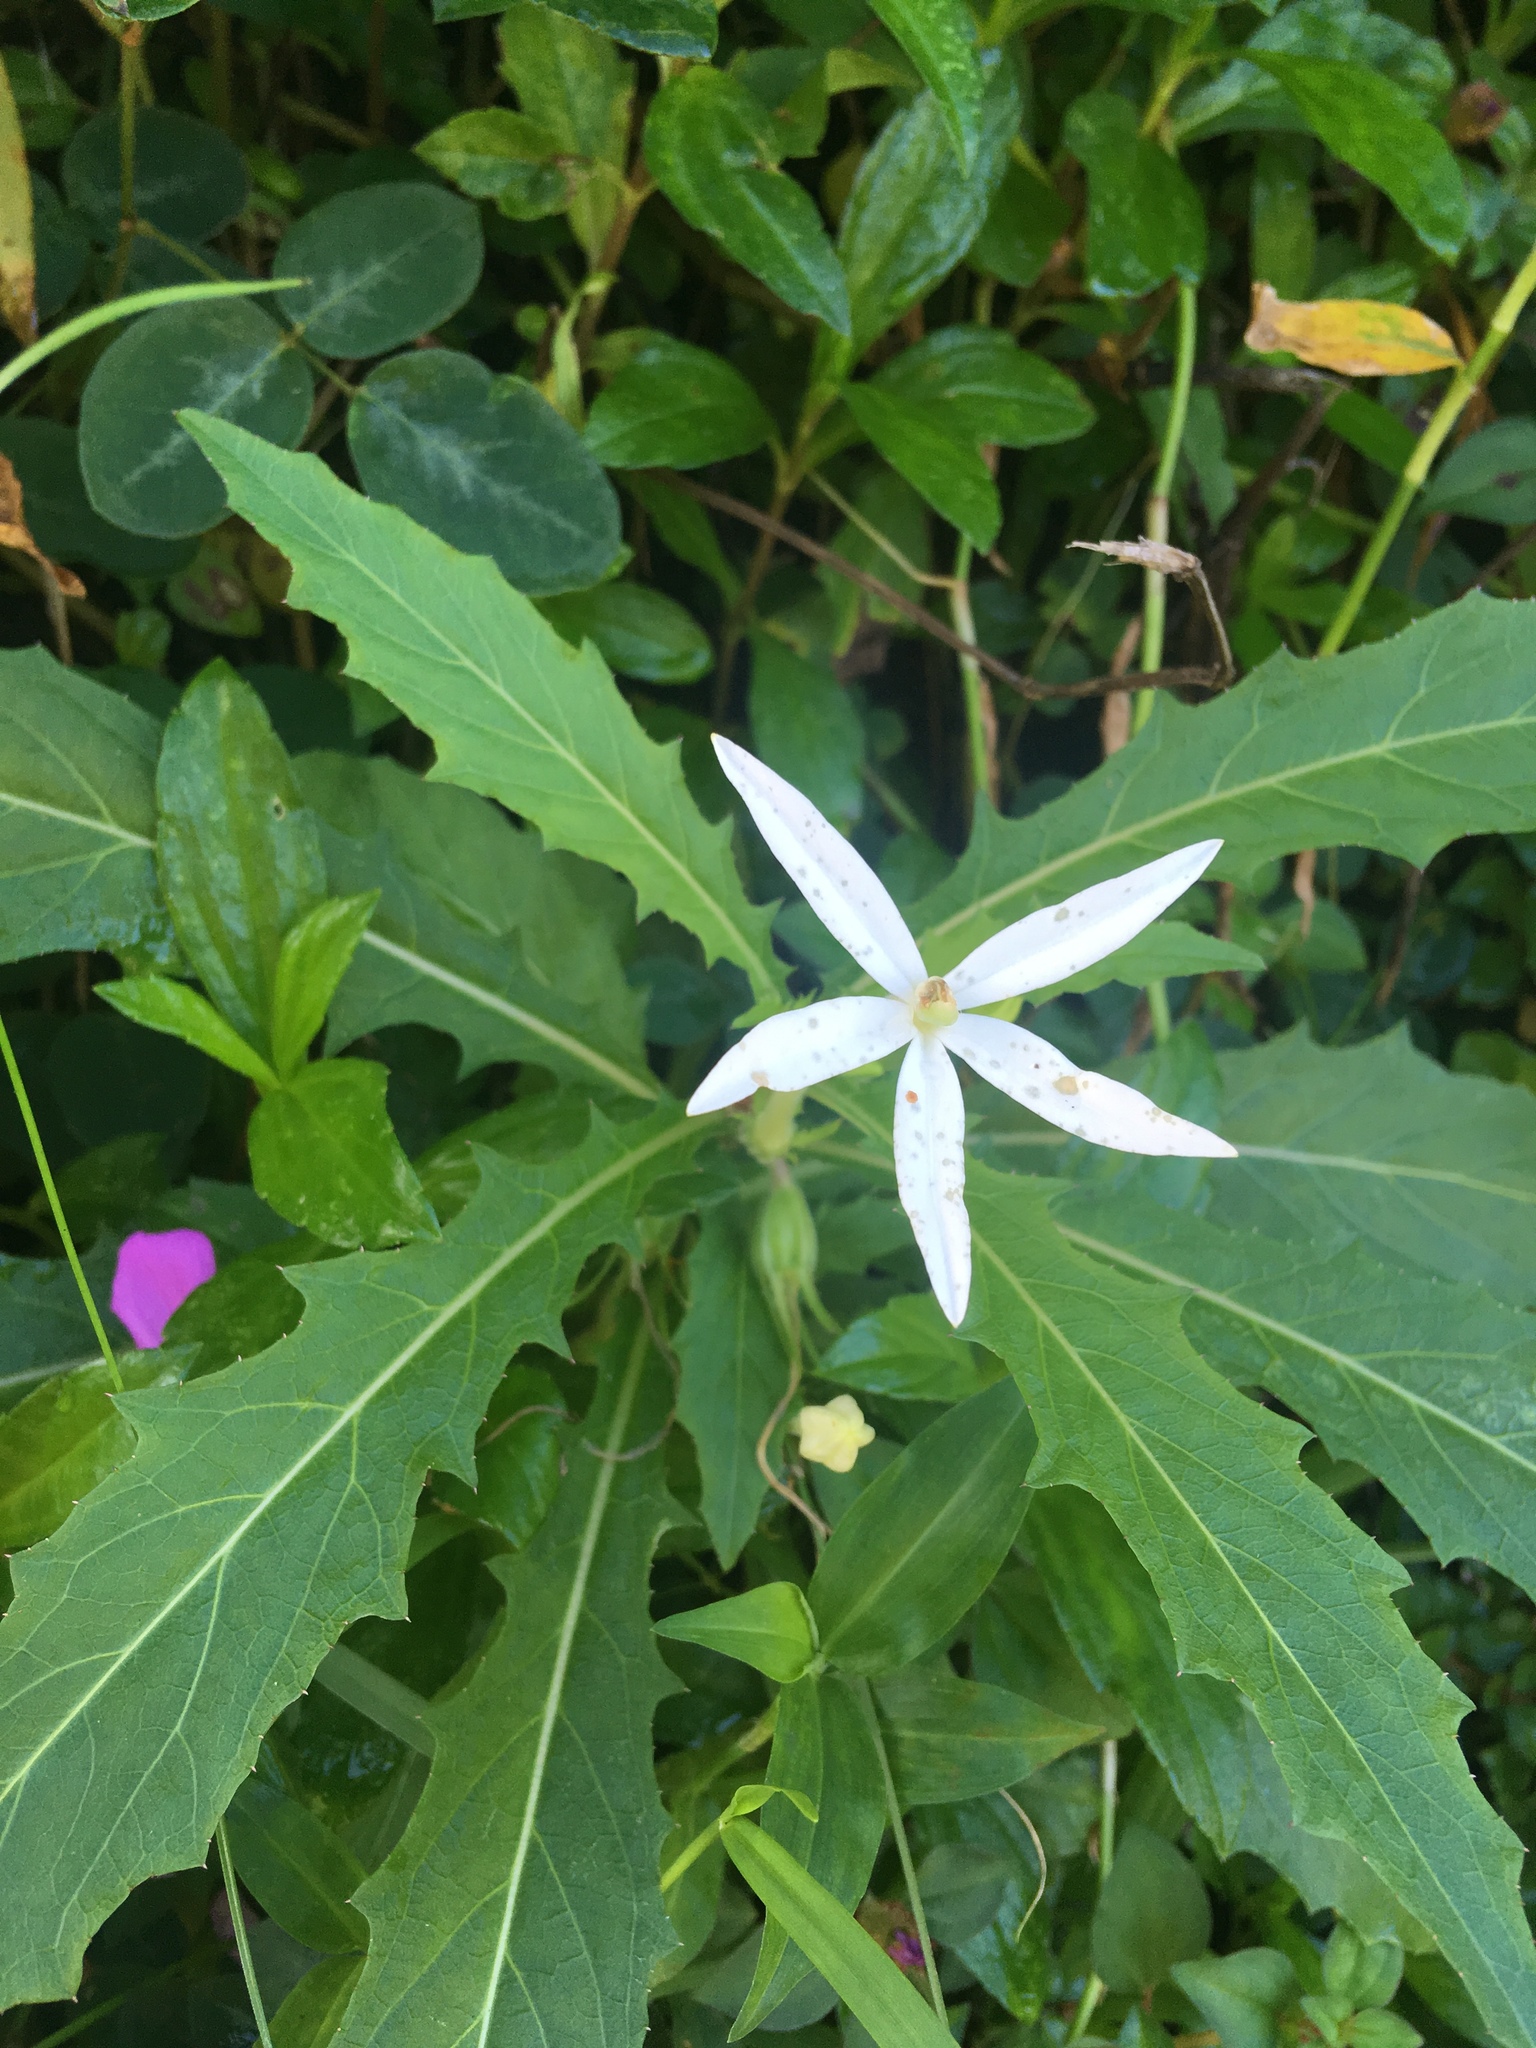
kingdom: Plantae
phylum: Tracheophyta
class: Magnoliopsida
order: Asterales
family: Campanulaceae
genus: Hippobroma
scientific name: Hippobroma longiflora
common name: Madamfate
